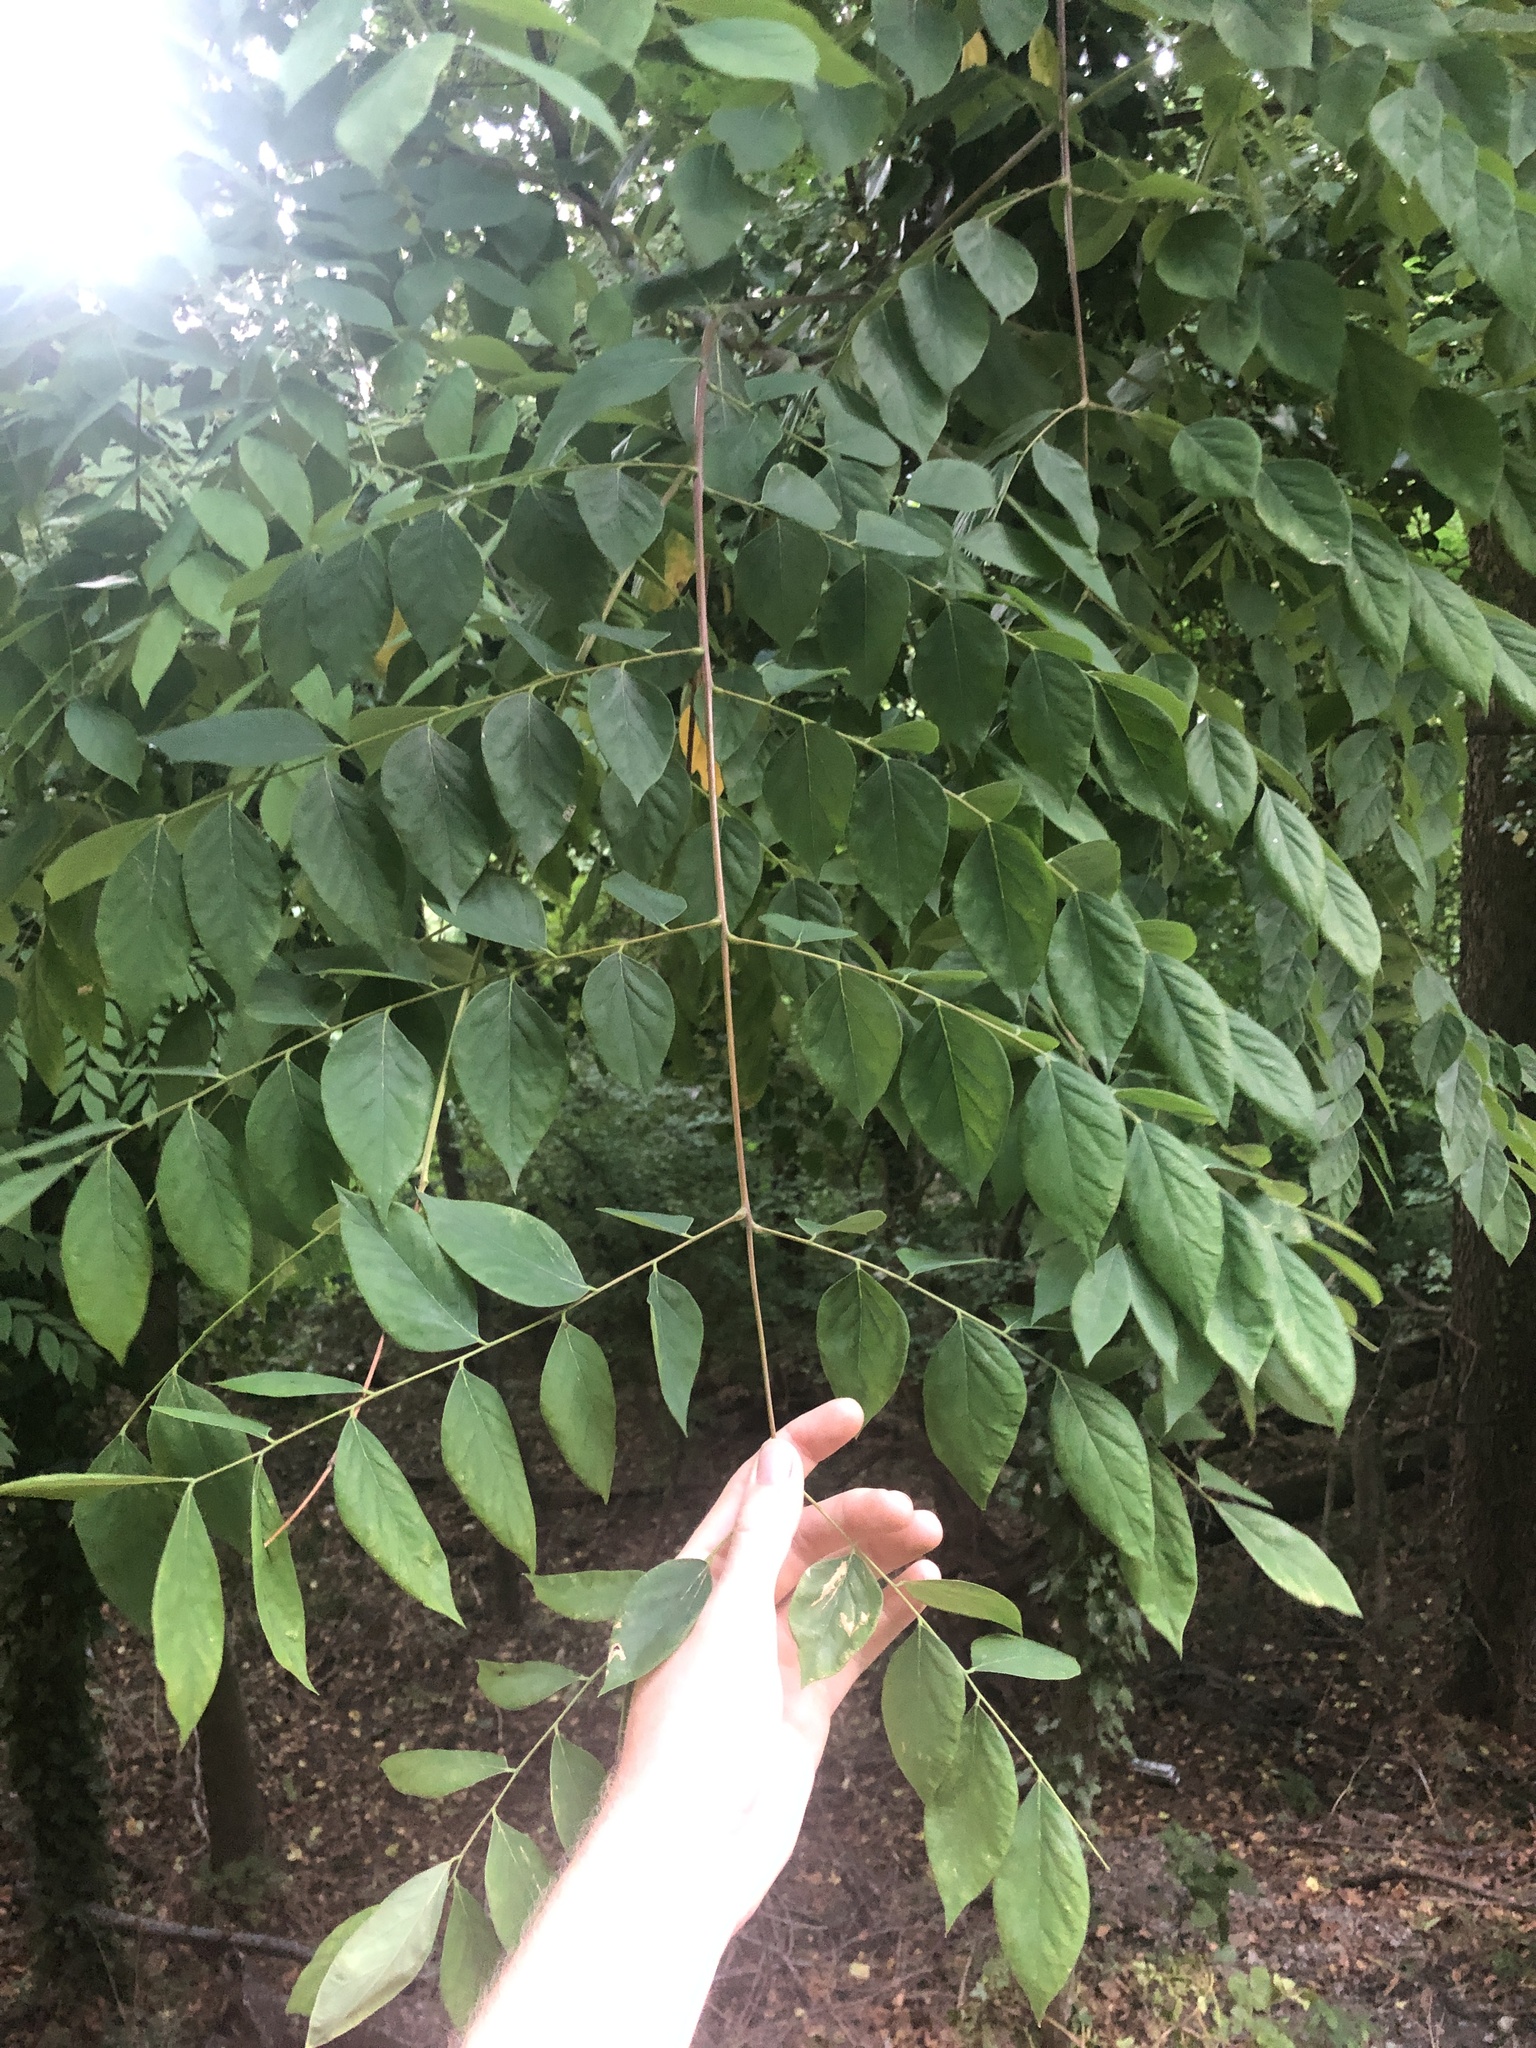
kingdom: Plantae
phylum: Tracheophyta
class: Magnoliopsida
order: Fabales
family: Fabaceae
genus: Gymnocladus
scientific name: Gymnocladus dioicus
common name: Kentucky coffee-tree
